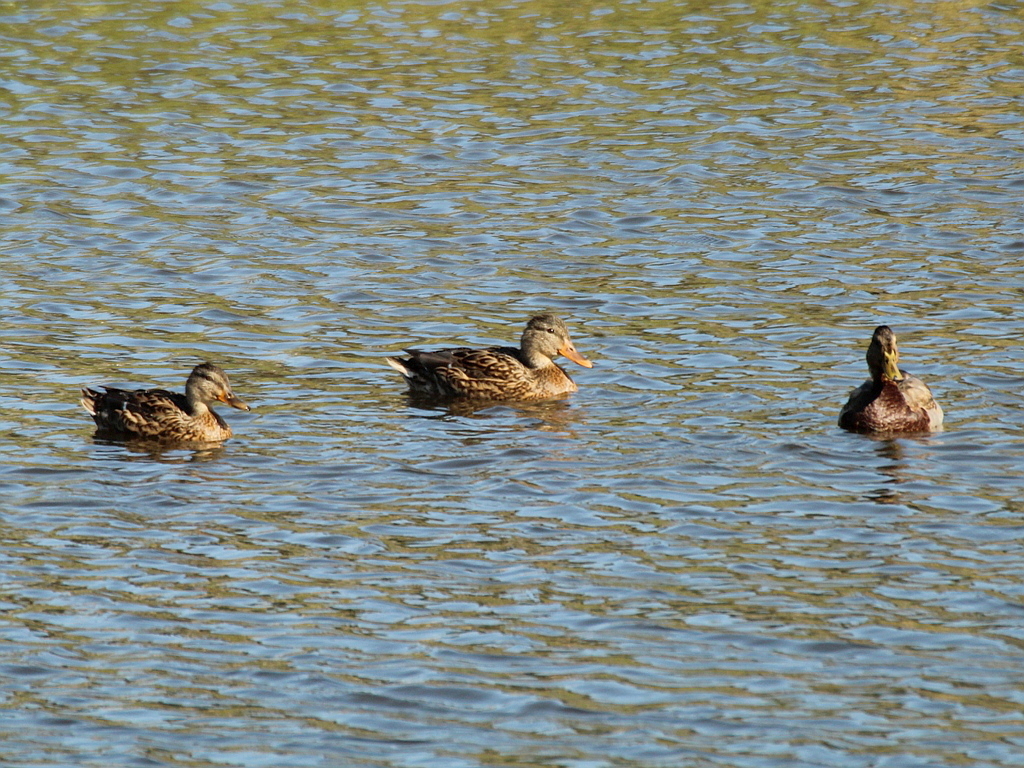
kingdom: Animalia
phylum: Chordata
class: Aves
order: Anseriformes
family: Anatidae
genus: Anas
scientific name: Anas platyrhynchos
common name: Mallard
